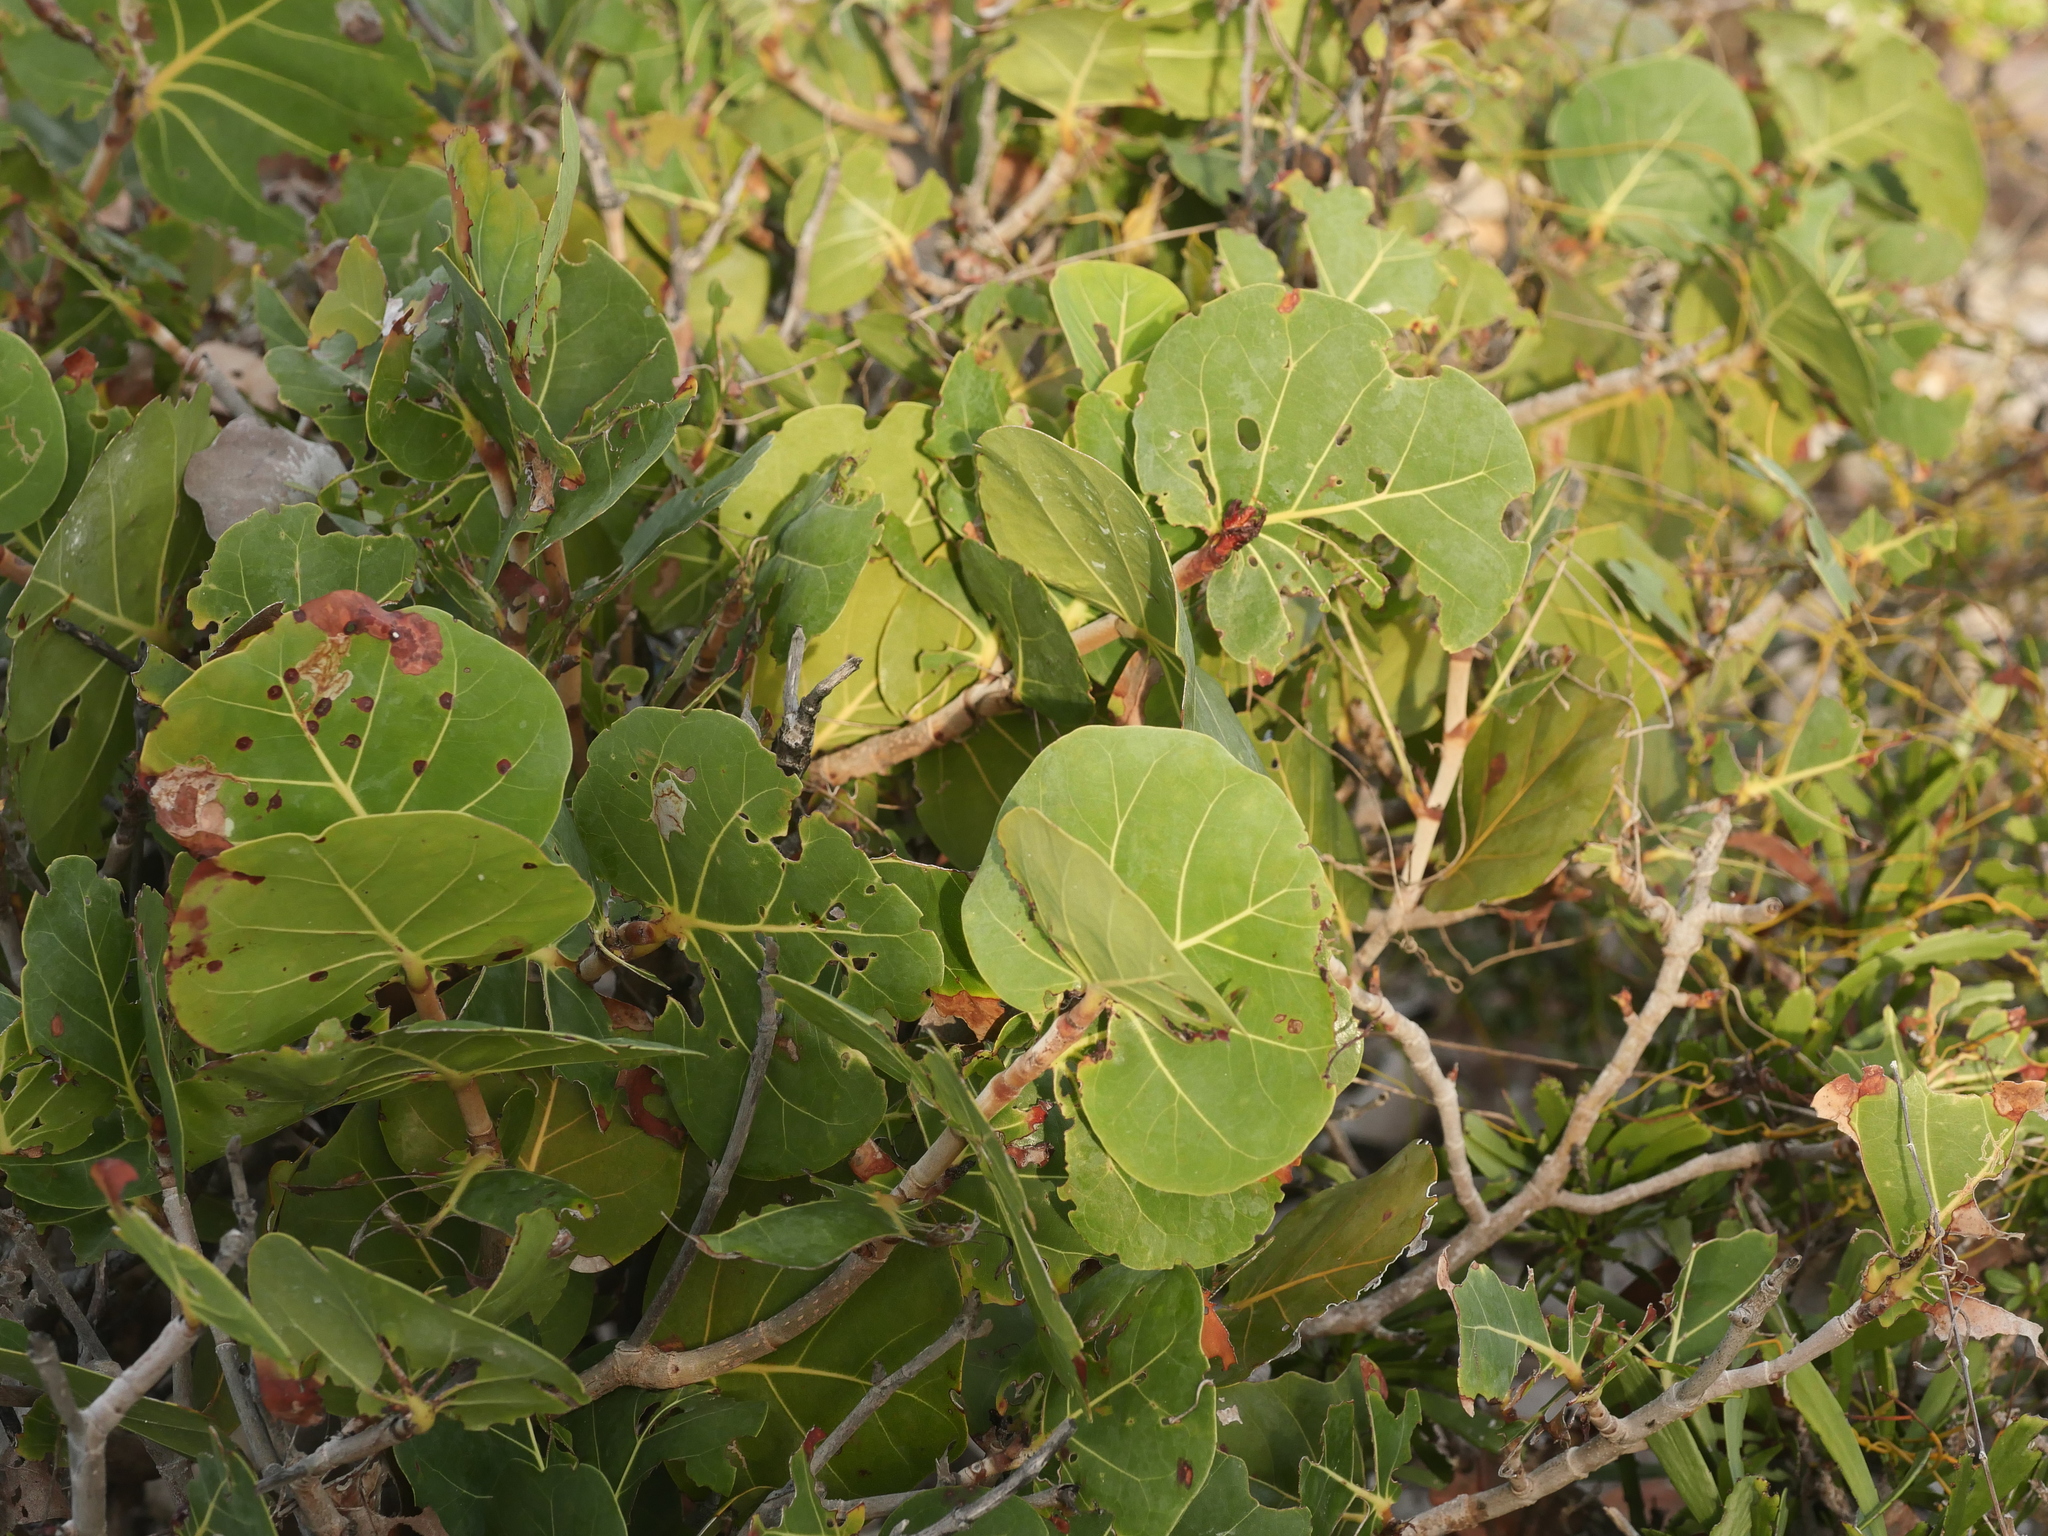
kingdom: Plantae
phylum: Tracheophyta
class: Magnoliopsida
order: Caryophyllales
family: Polygonaceae
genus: Coccoloba
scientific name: Coccoloba uvifera
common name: Seagrape
